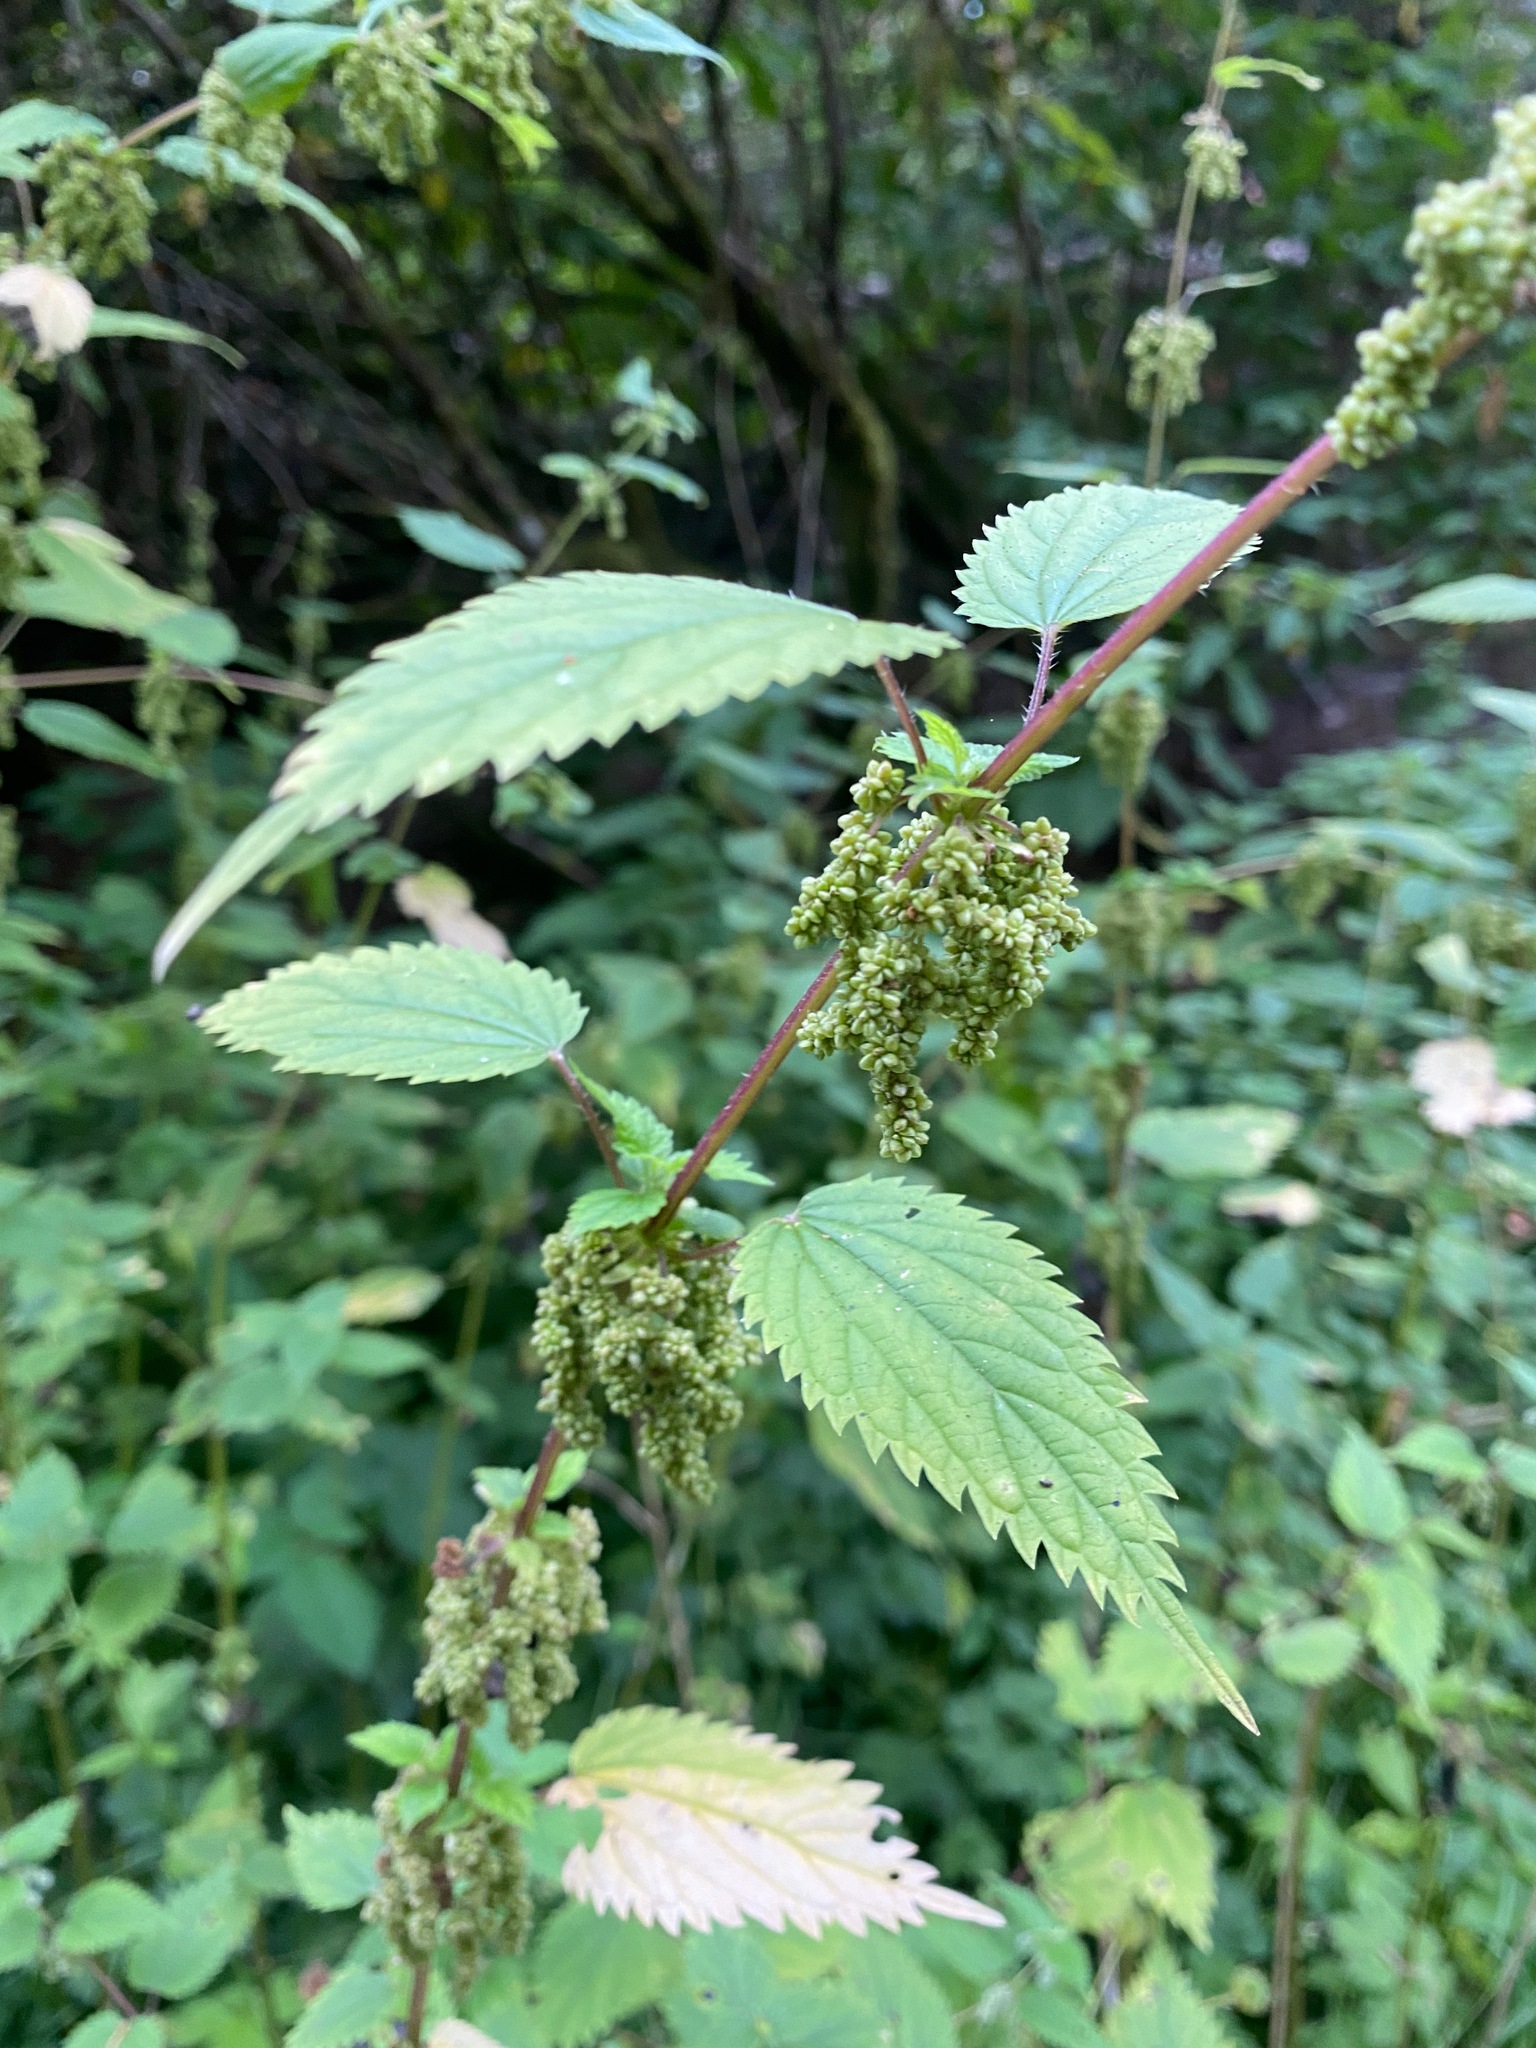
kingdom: Plantae
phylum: Tracheophyta
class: Magnoliopsida
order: Rosales
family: Urticaceae
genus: Urtica
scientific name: Urtica dioica
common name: Common nettle
